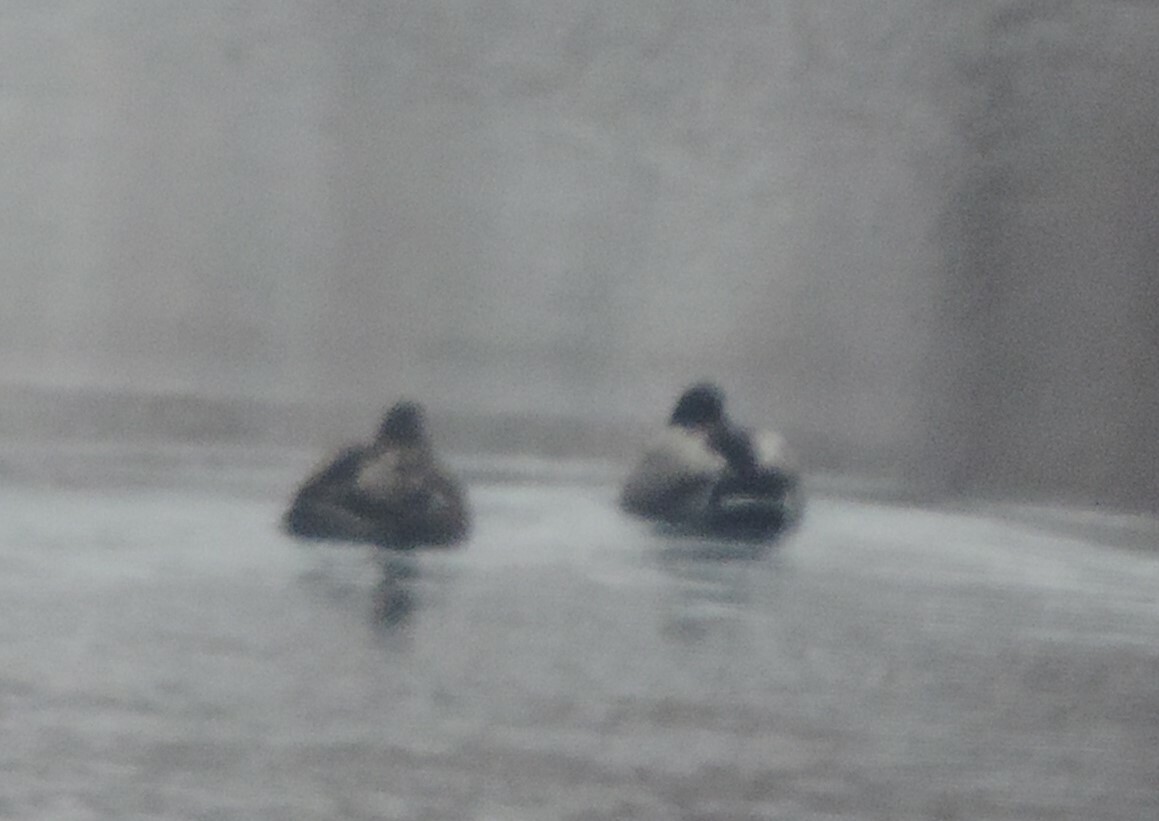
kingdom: Animalia
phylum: Chordata
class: Aves
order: Anseriformes
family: Anatidae
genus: Anas
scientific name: Anas platyrhynchos
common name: Mallard
